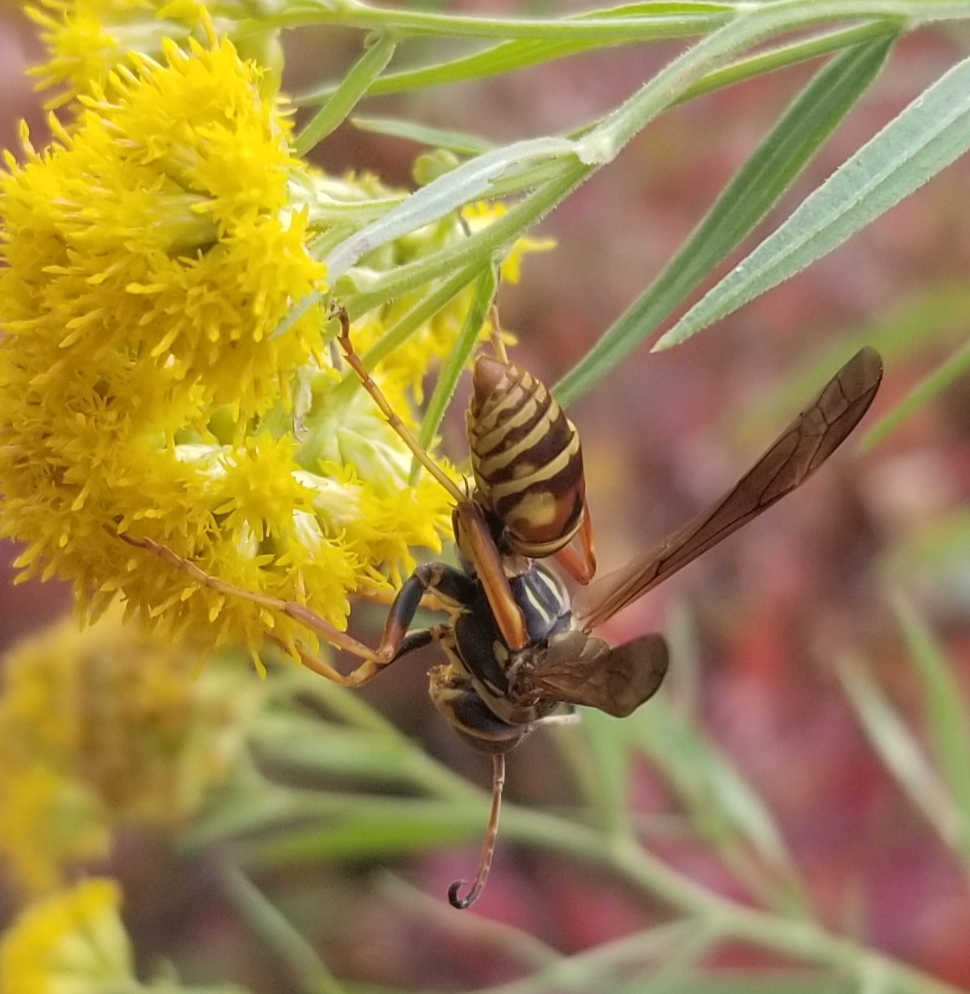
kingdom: Animalia
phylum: Arthropoda
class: Insecta
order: Hymenoptera
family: Eumenidae
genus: Polistes
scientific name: Polistes fuscatus
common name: Dark paper wasp
